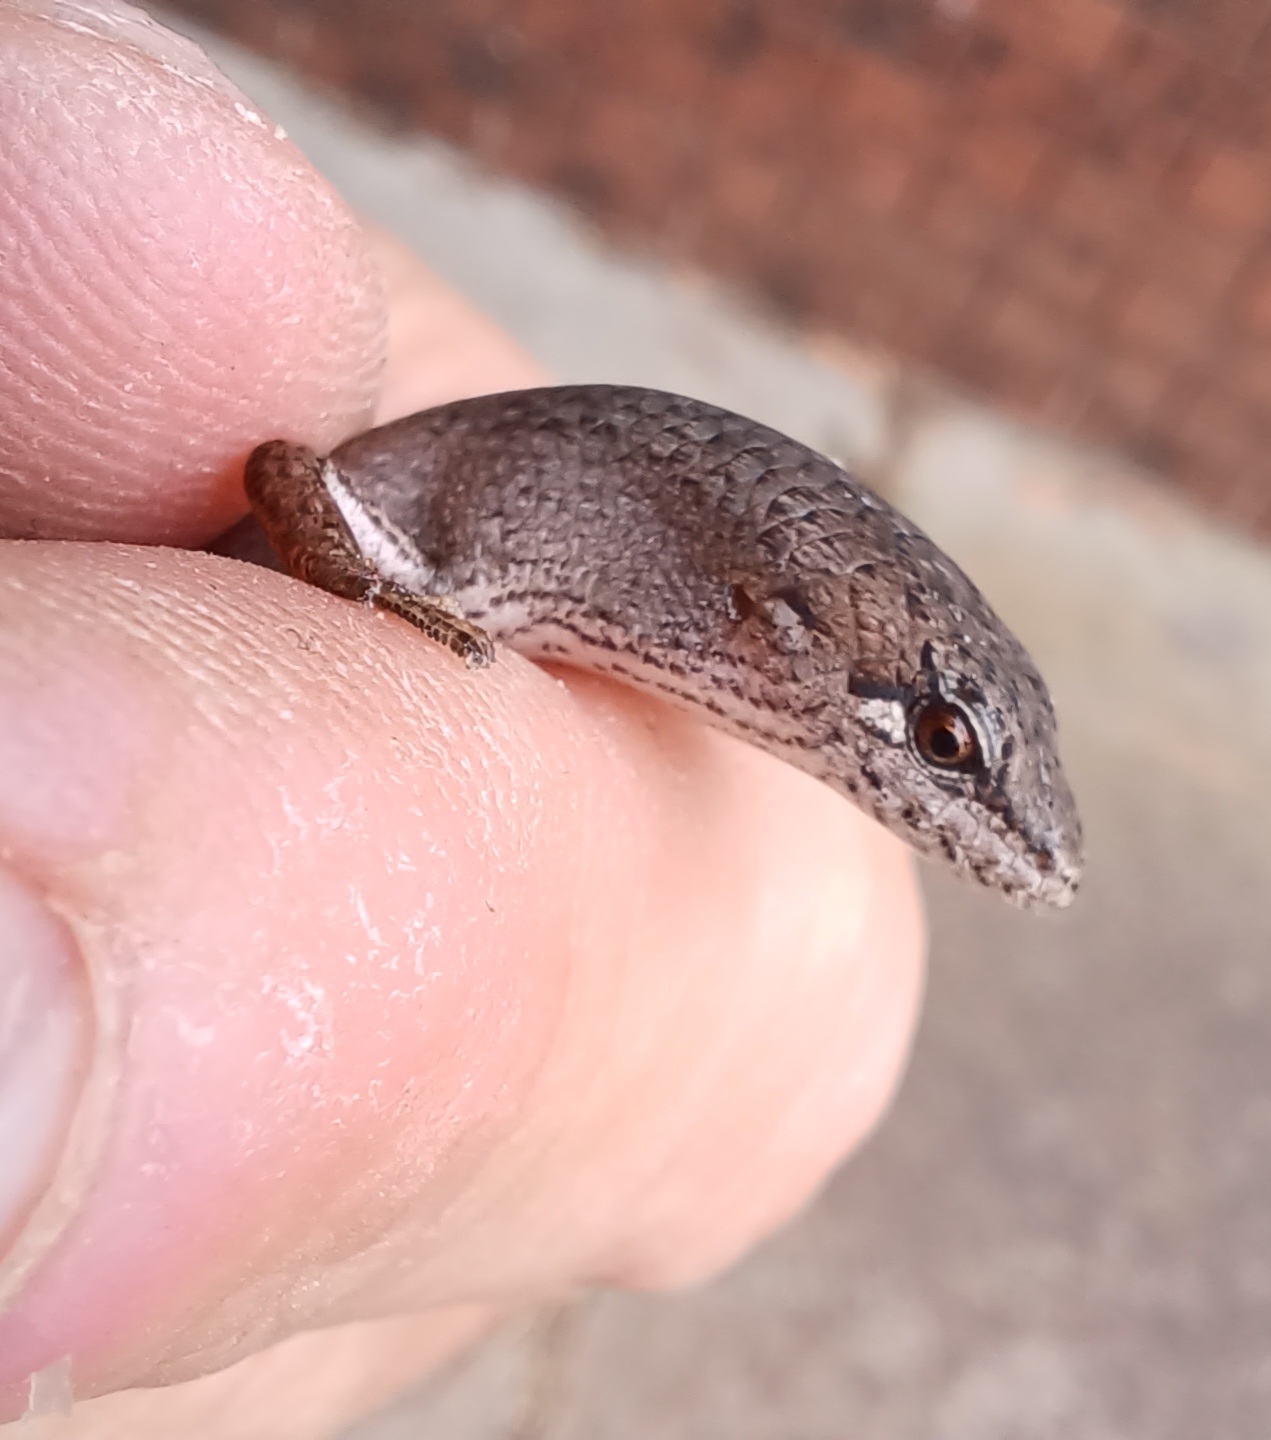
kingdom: Animalia
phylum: Chordata
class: Squamata
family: Scincidae
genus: Saproscincus
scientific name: Saproscincus mustelinus
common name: Southern weasel skink
